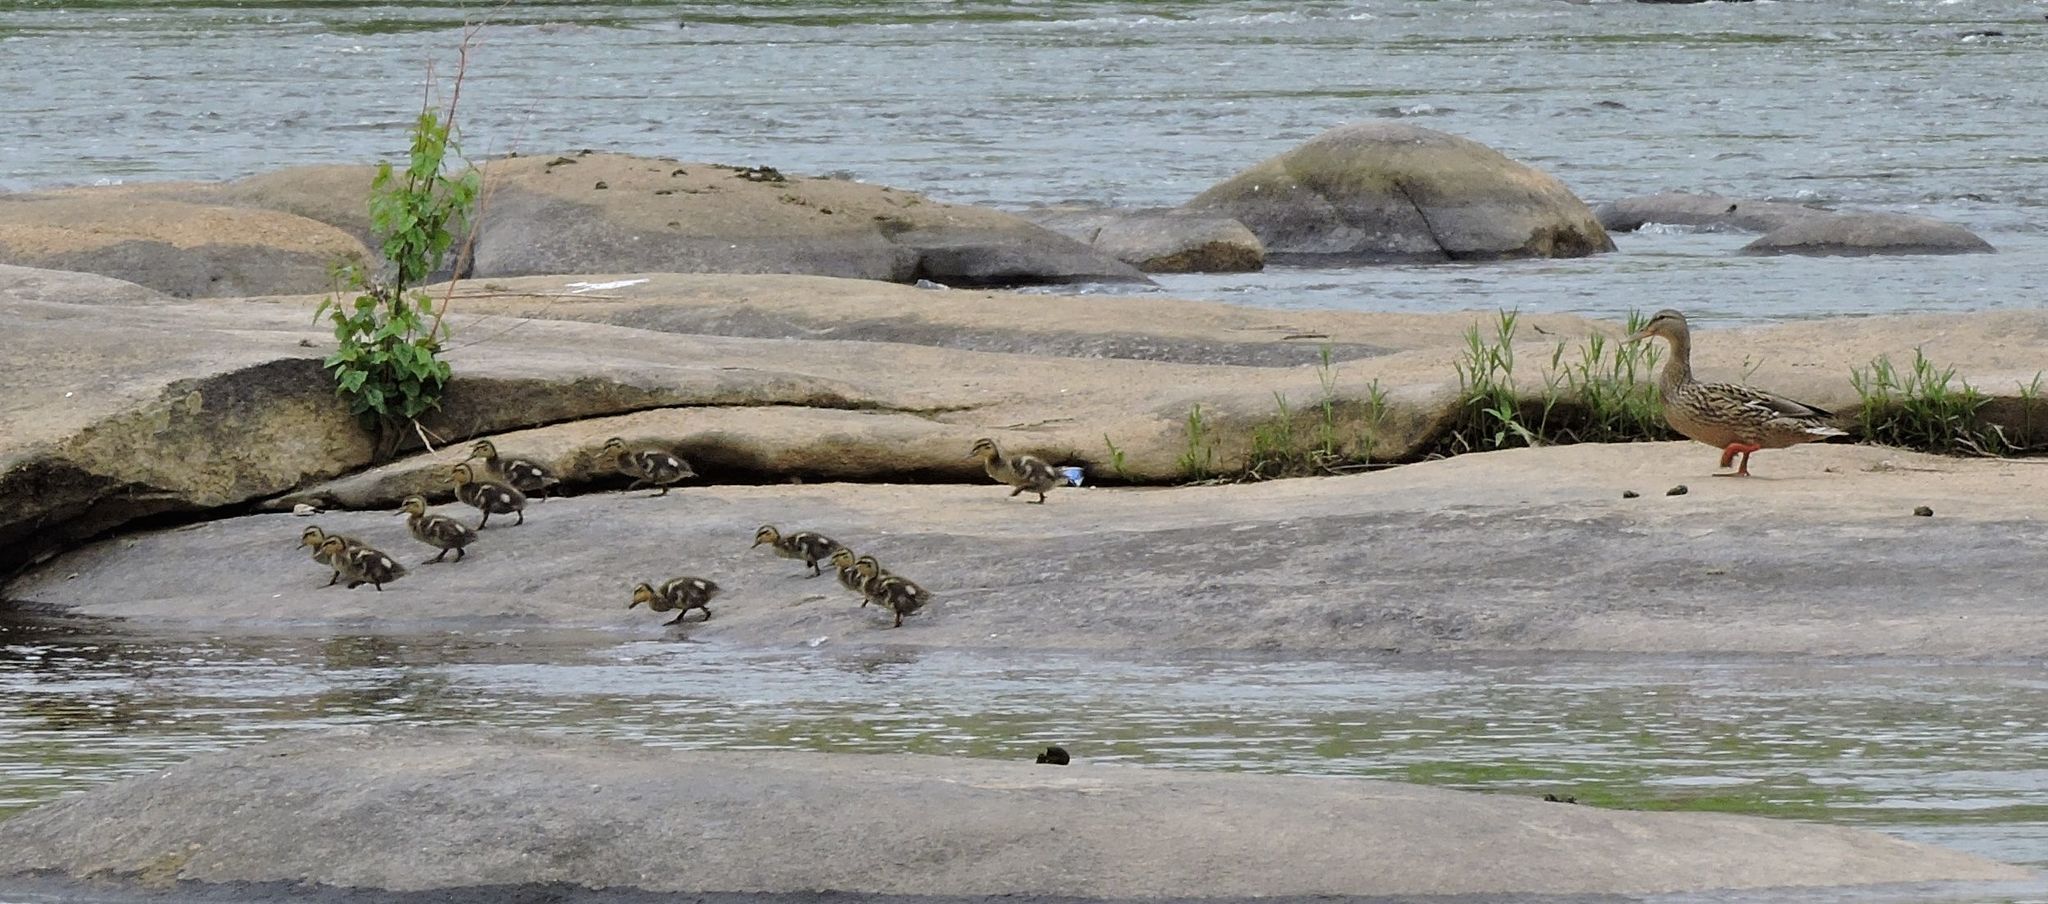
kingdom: Animalia
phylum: Chordata
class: Aves
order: Anseriformes
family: Anatidae
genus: Anas
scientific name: Anas platyrhynchos
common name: Mallard
